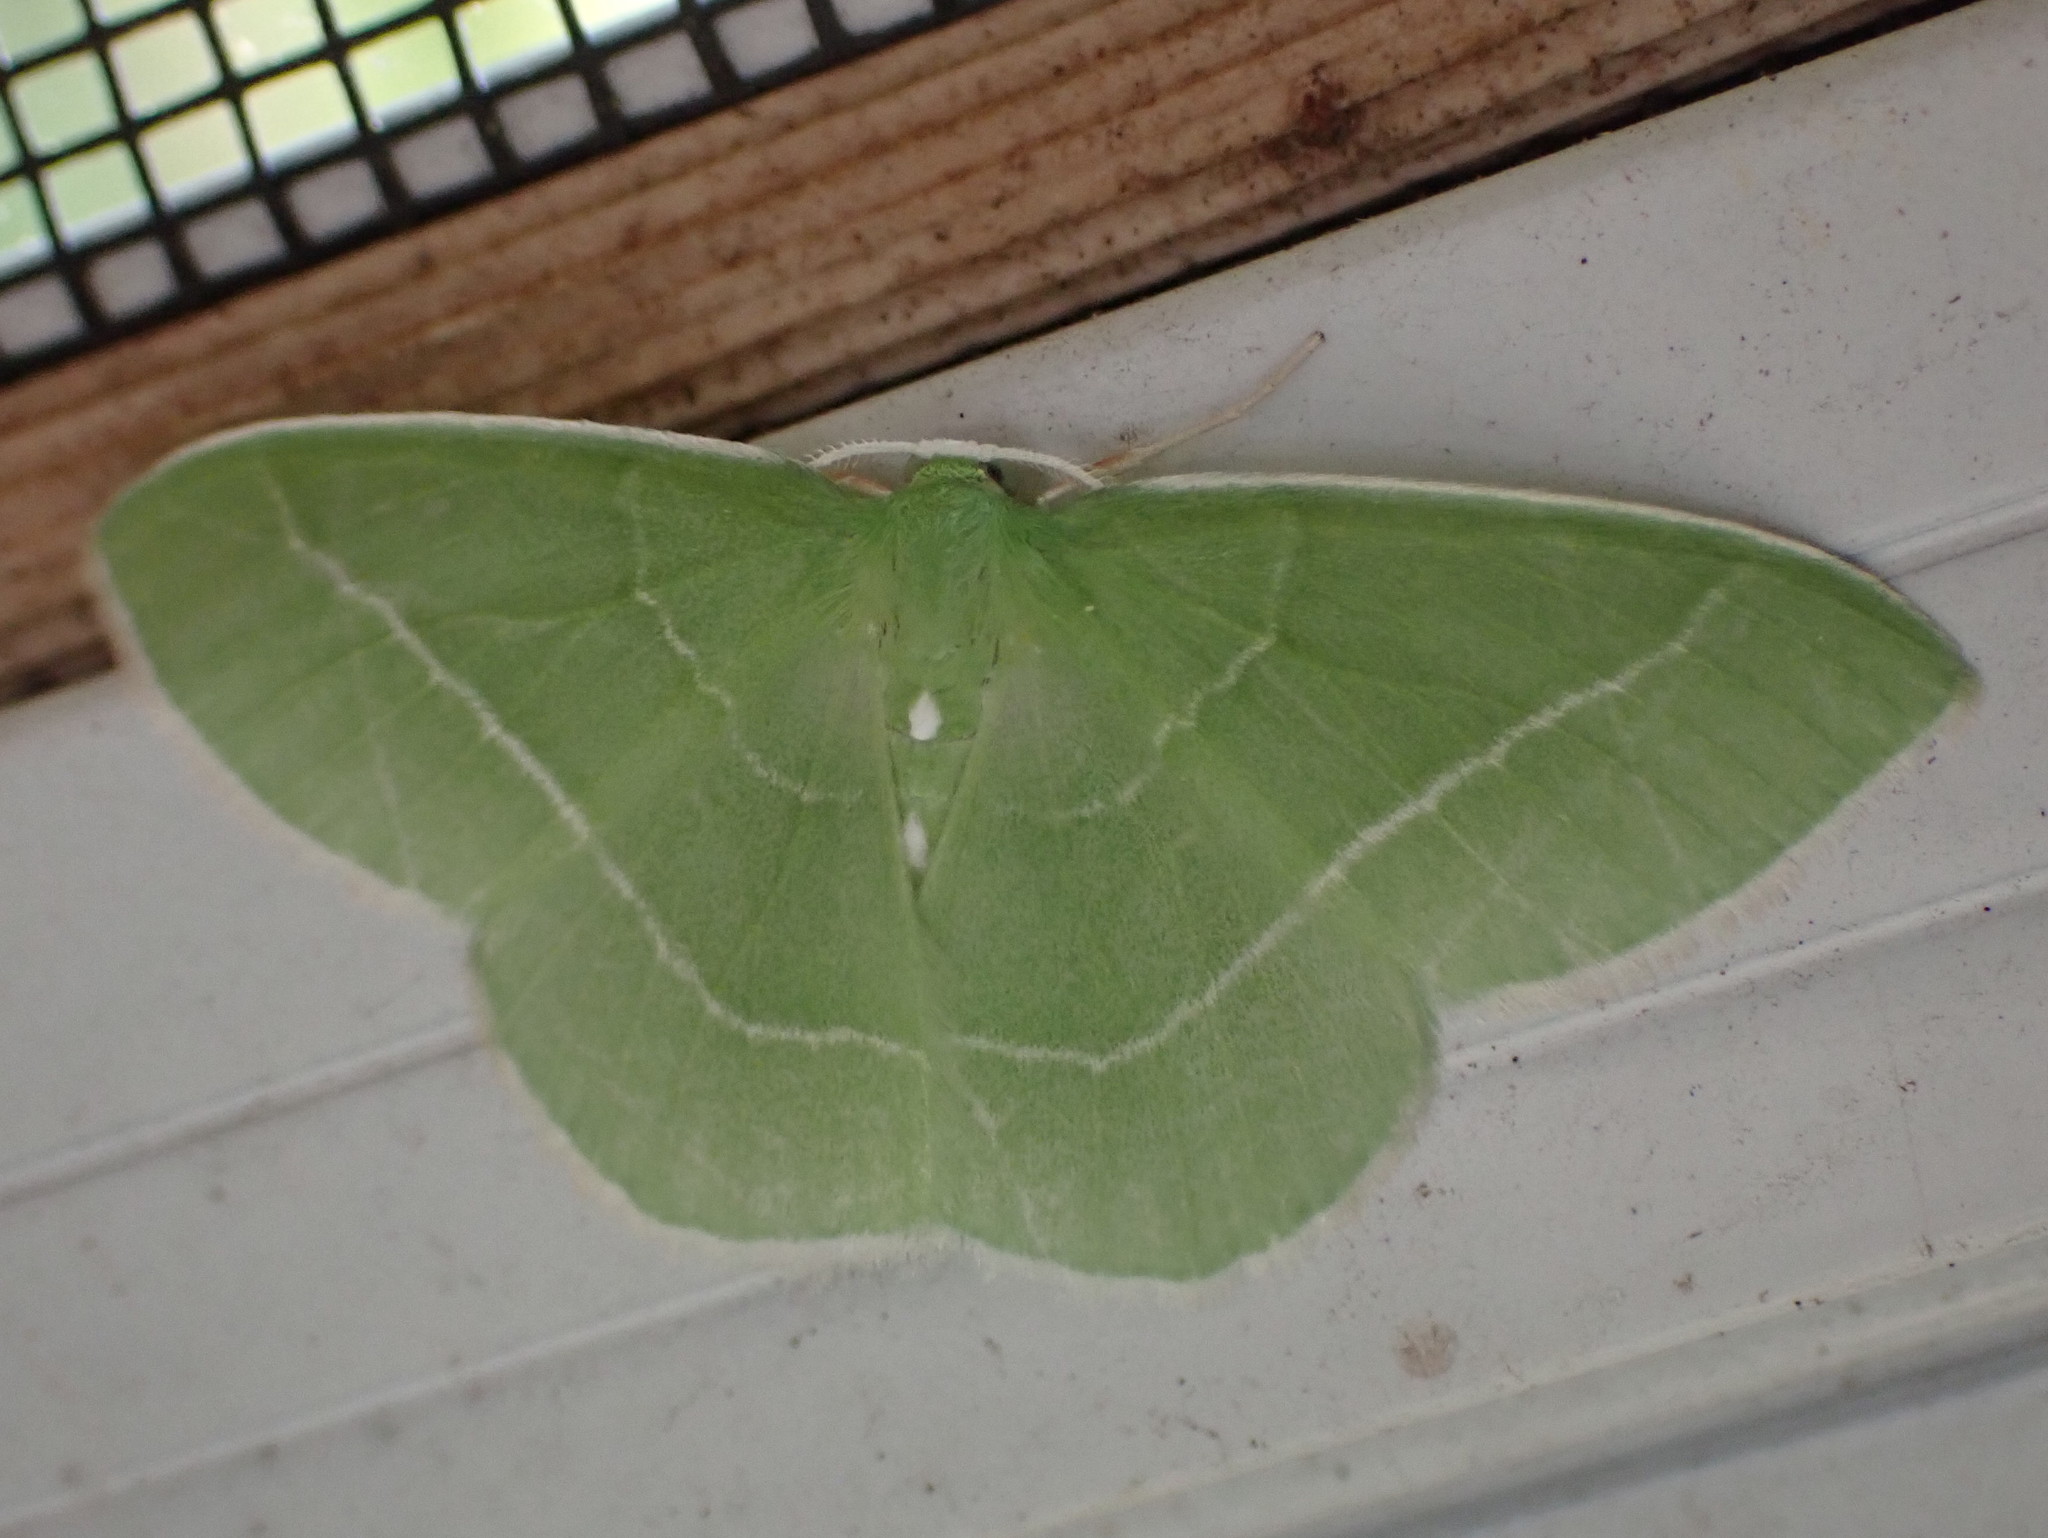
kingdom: Animalia
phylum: Arthropoda
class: Insecta
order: Lepidoptera
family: Geometridae
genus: Nemoria
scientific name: Nemoria mimosaria
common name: White-fringed emerald
